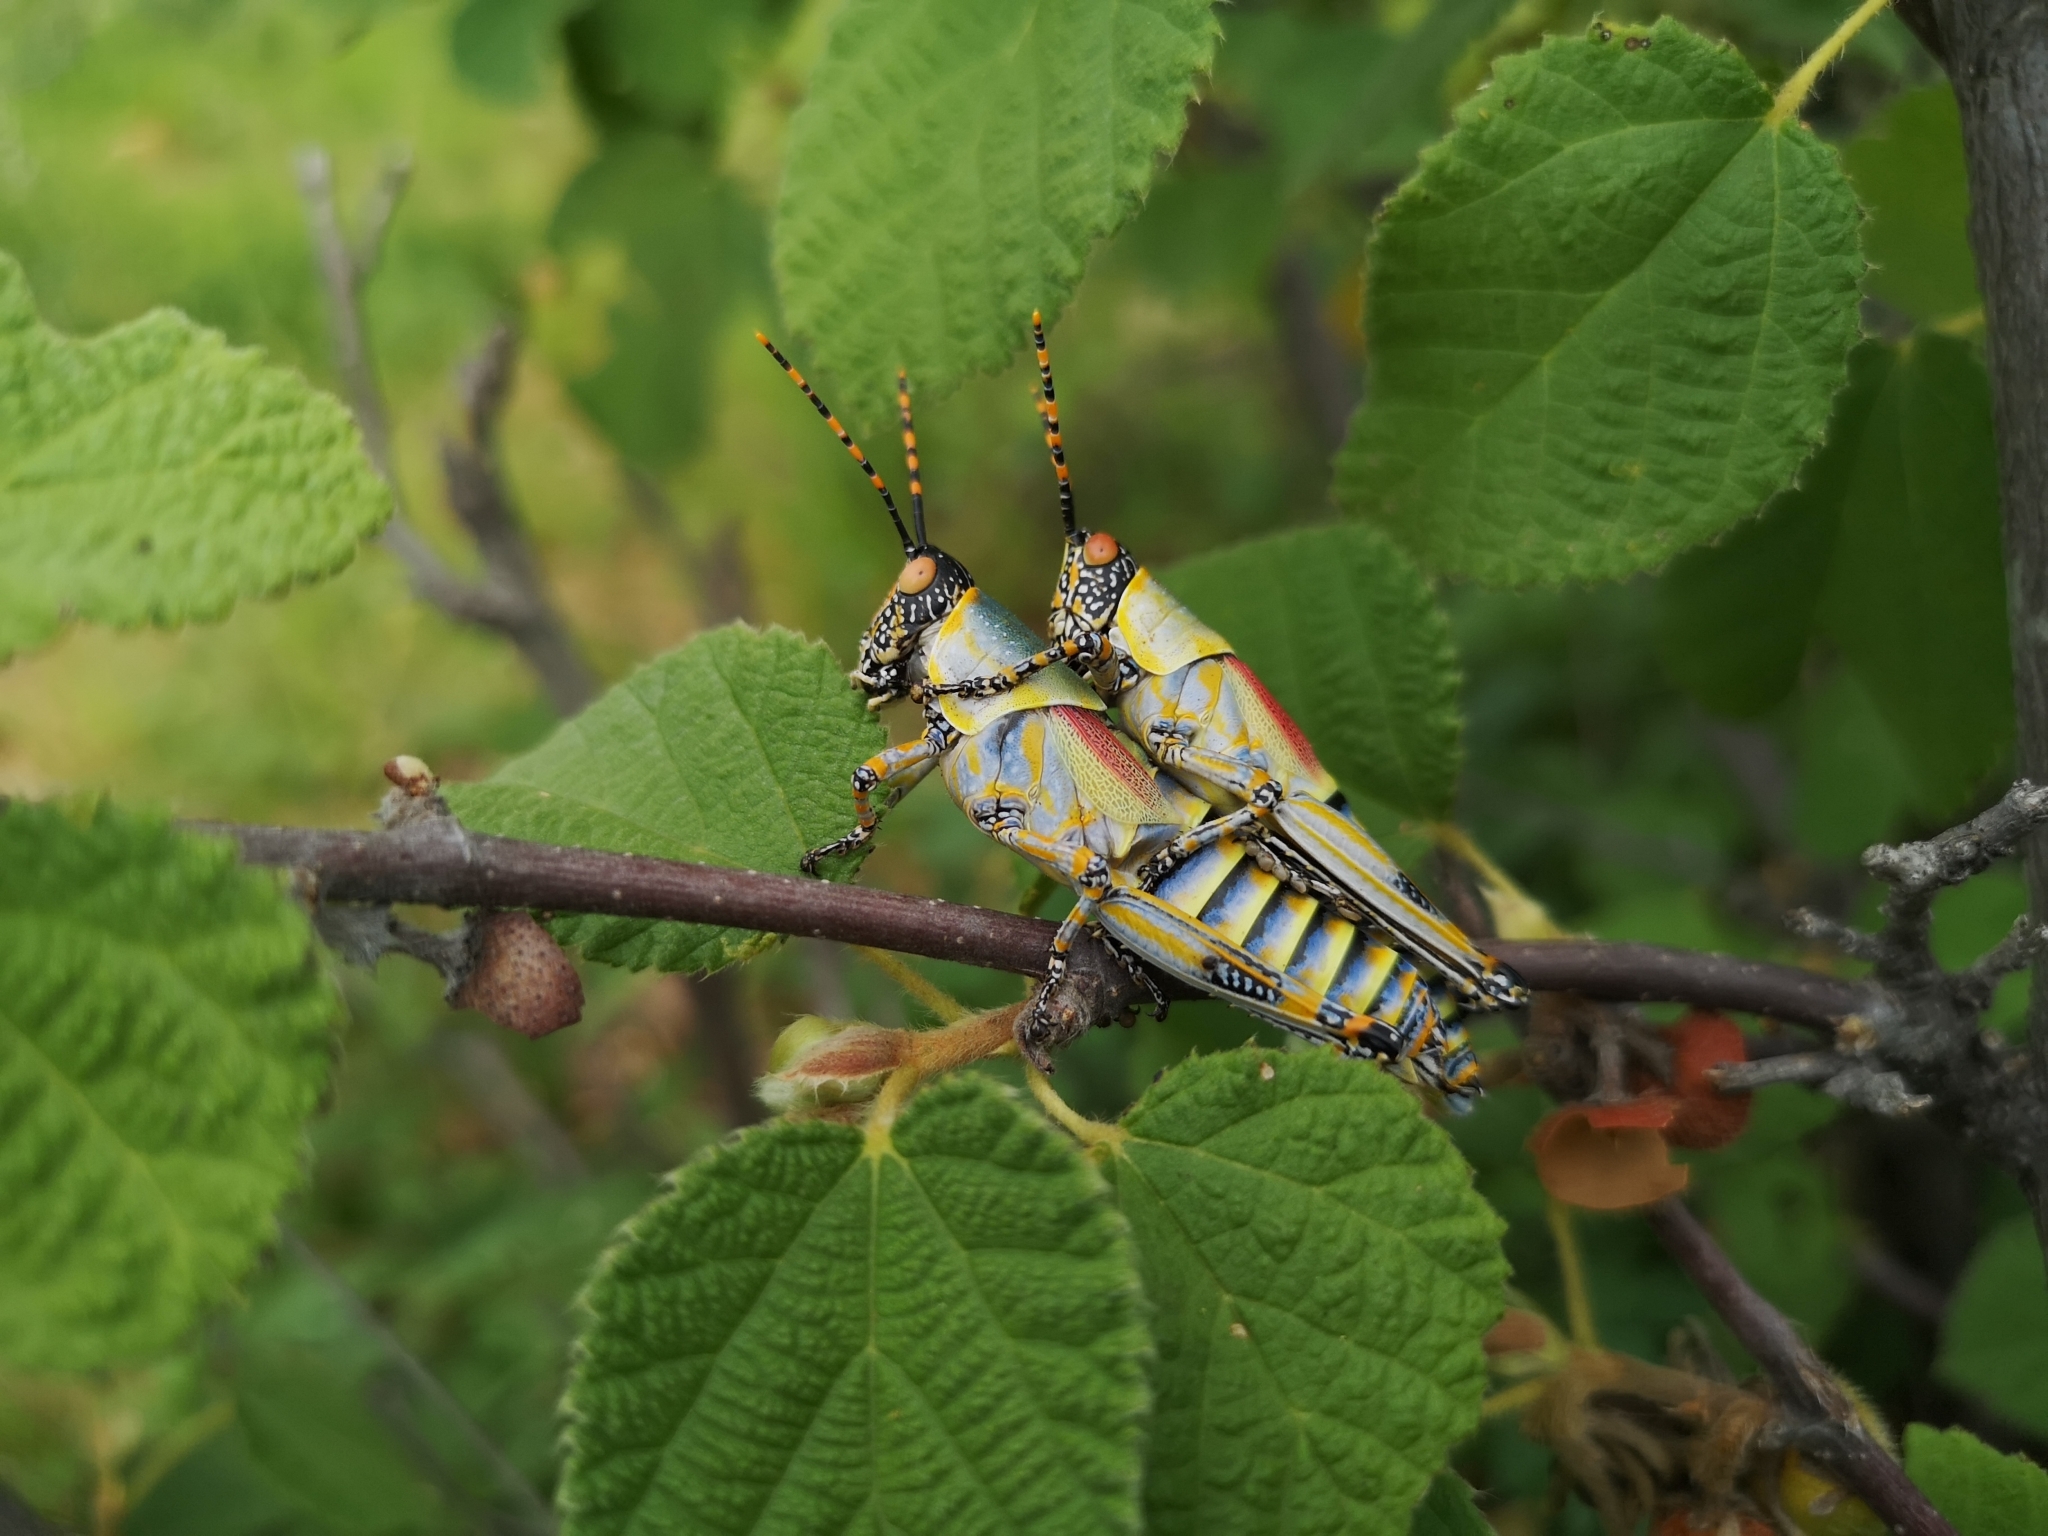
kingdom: Animalia
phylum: Arthropoda
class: Insecta
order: Orthoptera
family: Pyrgomorphidae
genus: Zonocerus
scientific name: Zonocerus elegans
